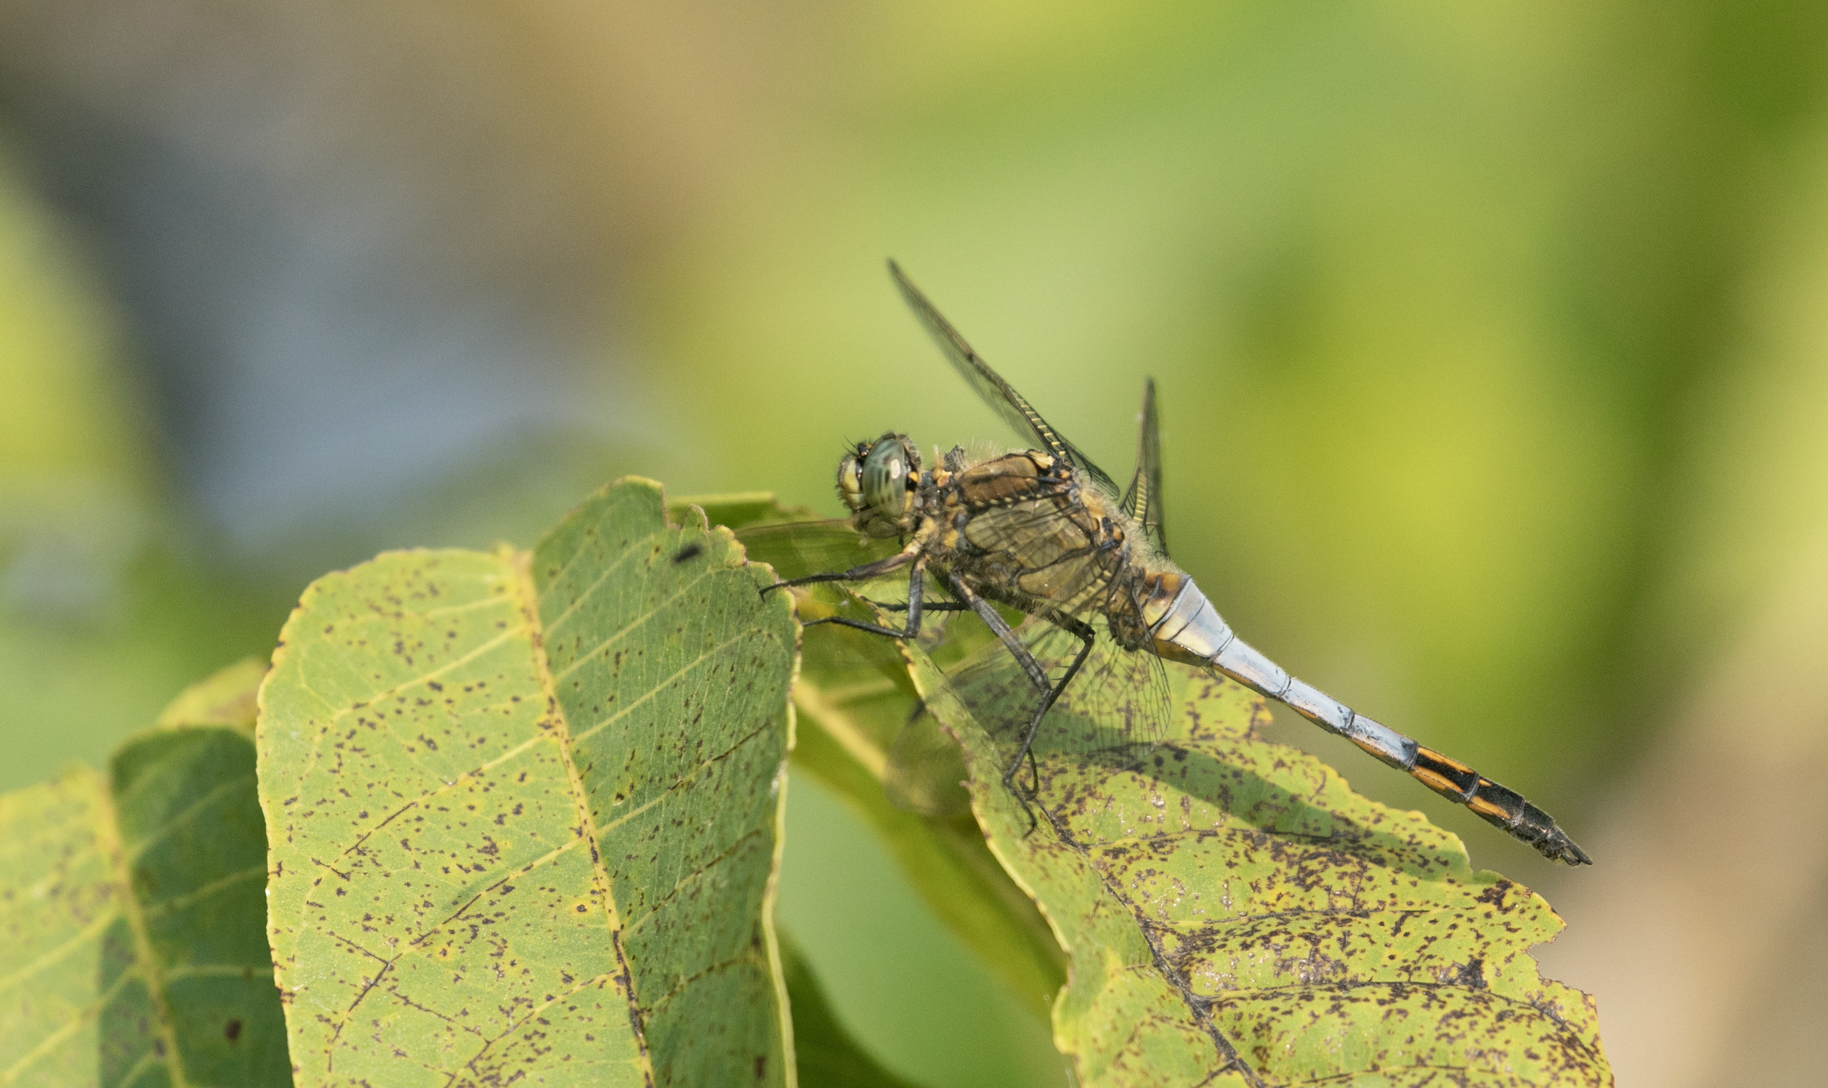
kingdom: Animalia
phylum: Arthropoda
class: Insecta
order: Odonata
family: Libellulidae
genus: Orthetrum
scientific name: Orthetrum cancellatum
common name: Black-tailed skimmer
